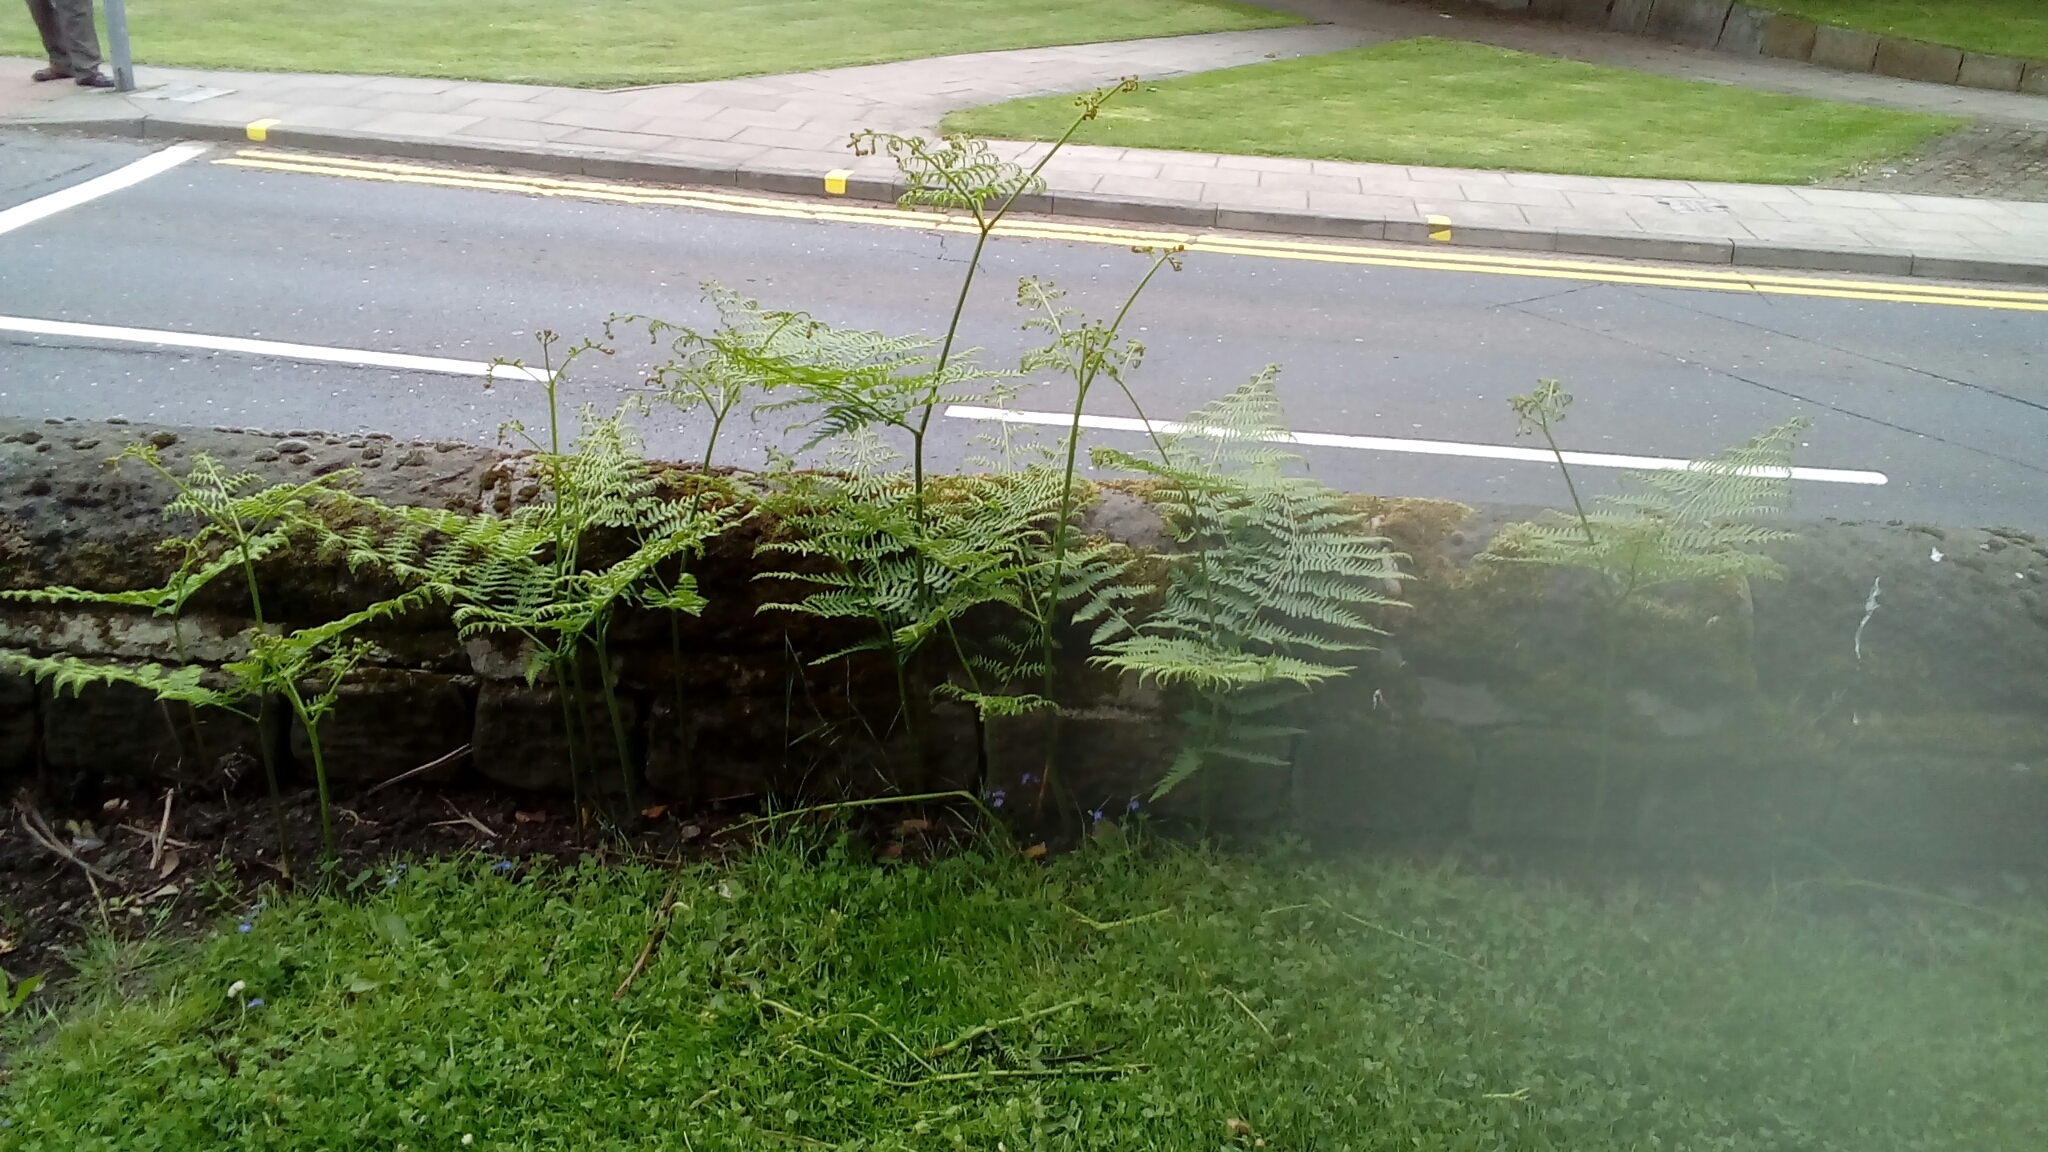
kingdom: Plantae
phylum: Tracheophyta
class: Polypodiopsida
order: Polypodiales
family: Dennstaedtiaceae
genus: Pteridium
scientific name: Pteridium aquilinum
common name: Bracken
